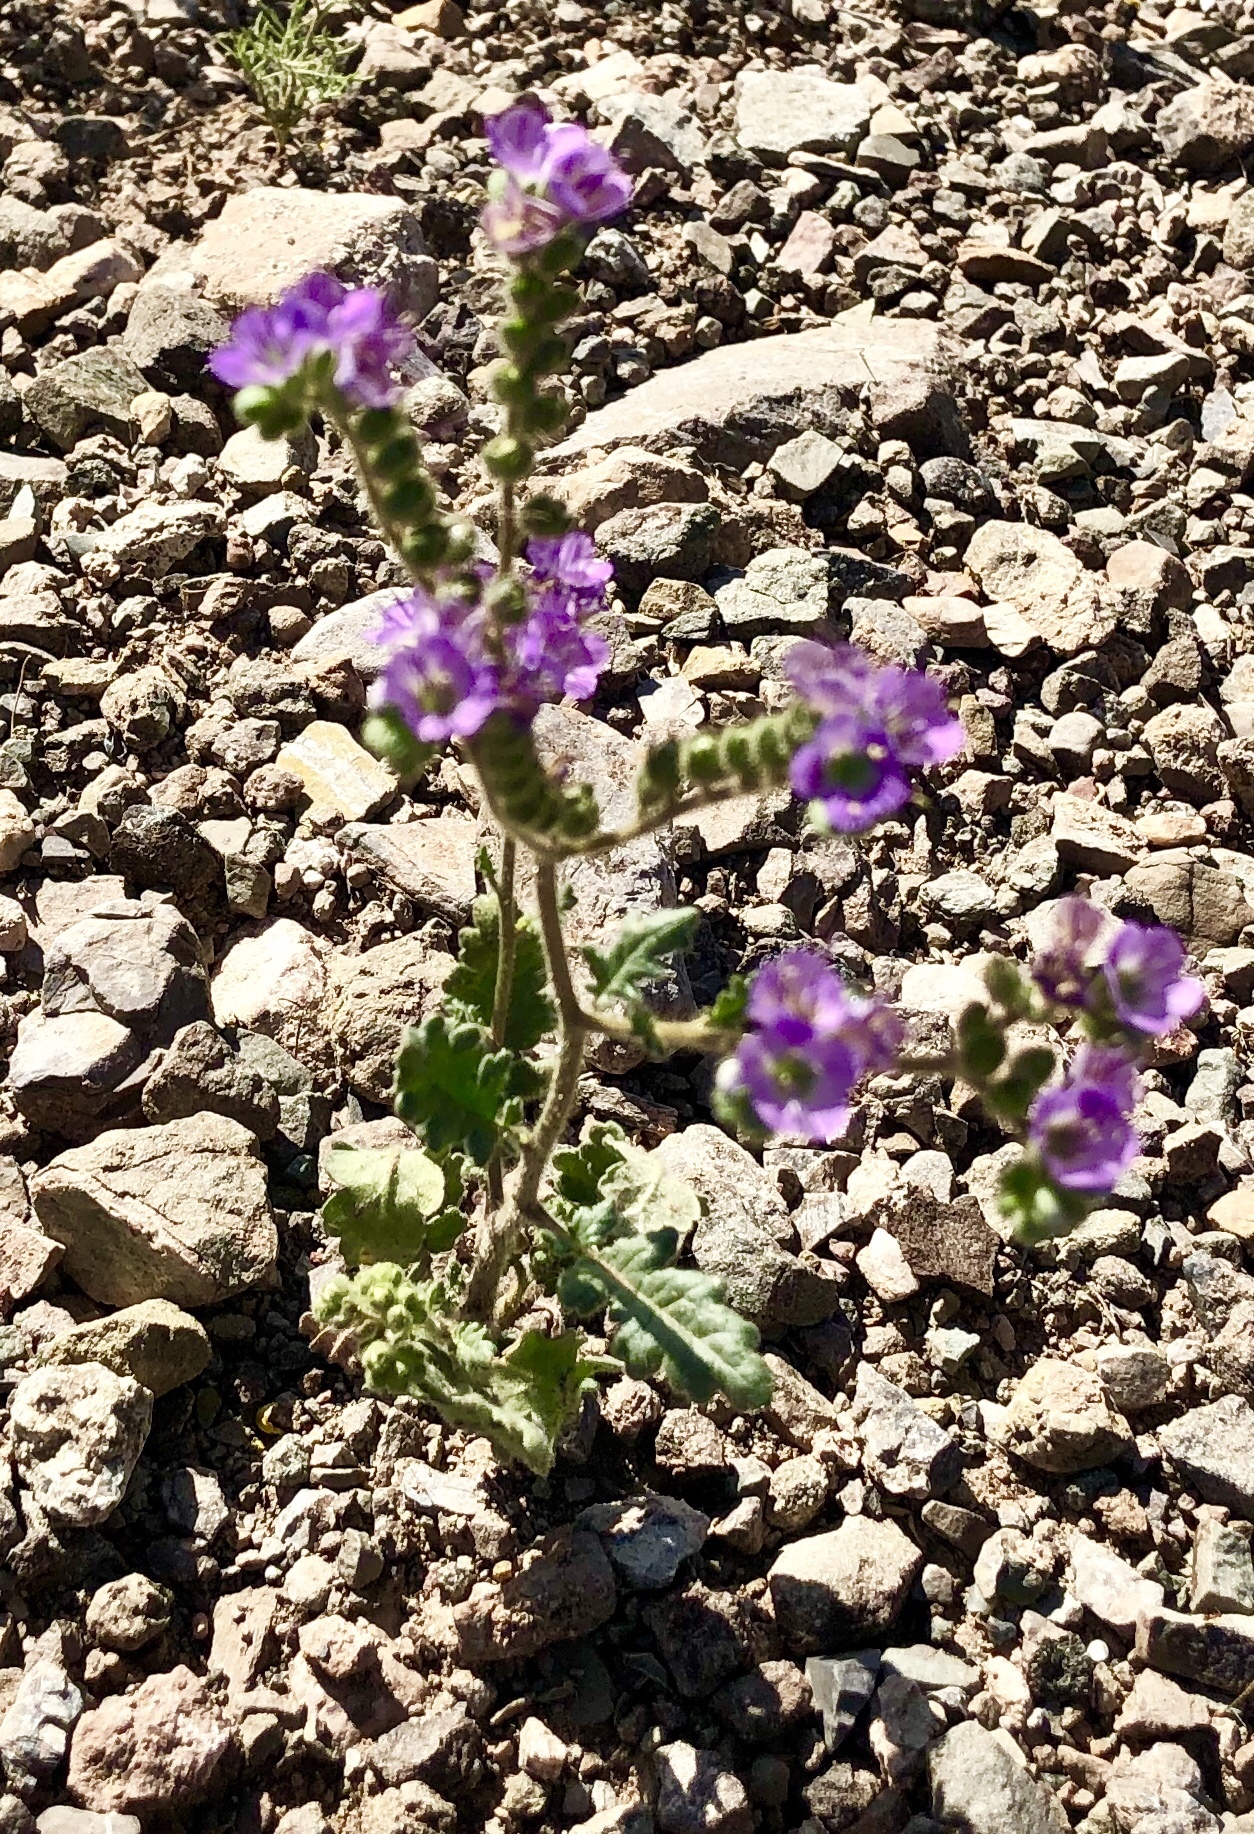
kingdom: Plantae
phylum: Tracheophyta
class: Magnoliopsida
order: Boraginales
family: Hydrophyllaceae
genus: Phacelia
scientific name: Phacelia crenulata
